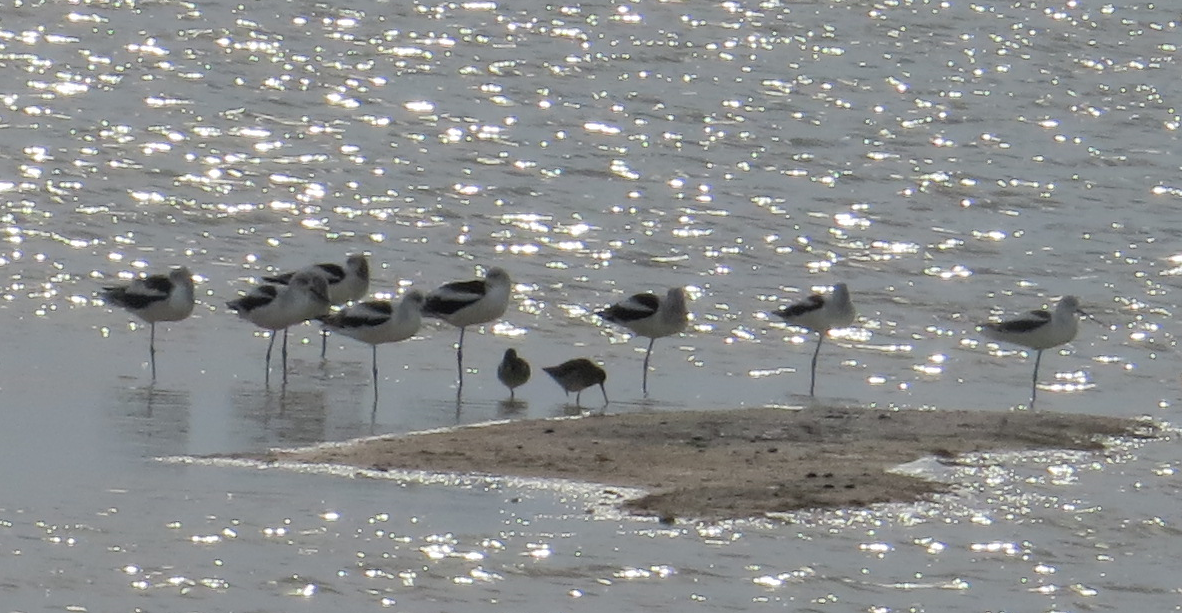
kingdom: Animalia
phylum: Chordata
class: Aves
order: Charadriiformes
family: Recurvirostridae
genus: Recurvirostra
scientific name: Recurvirostra americana
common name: American avocet
